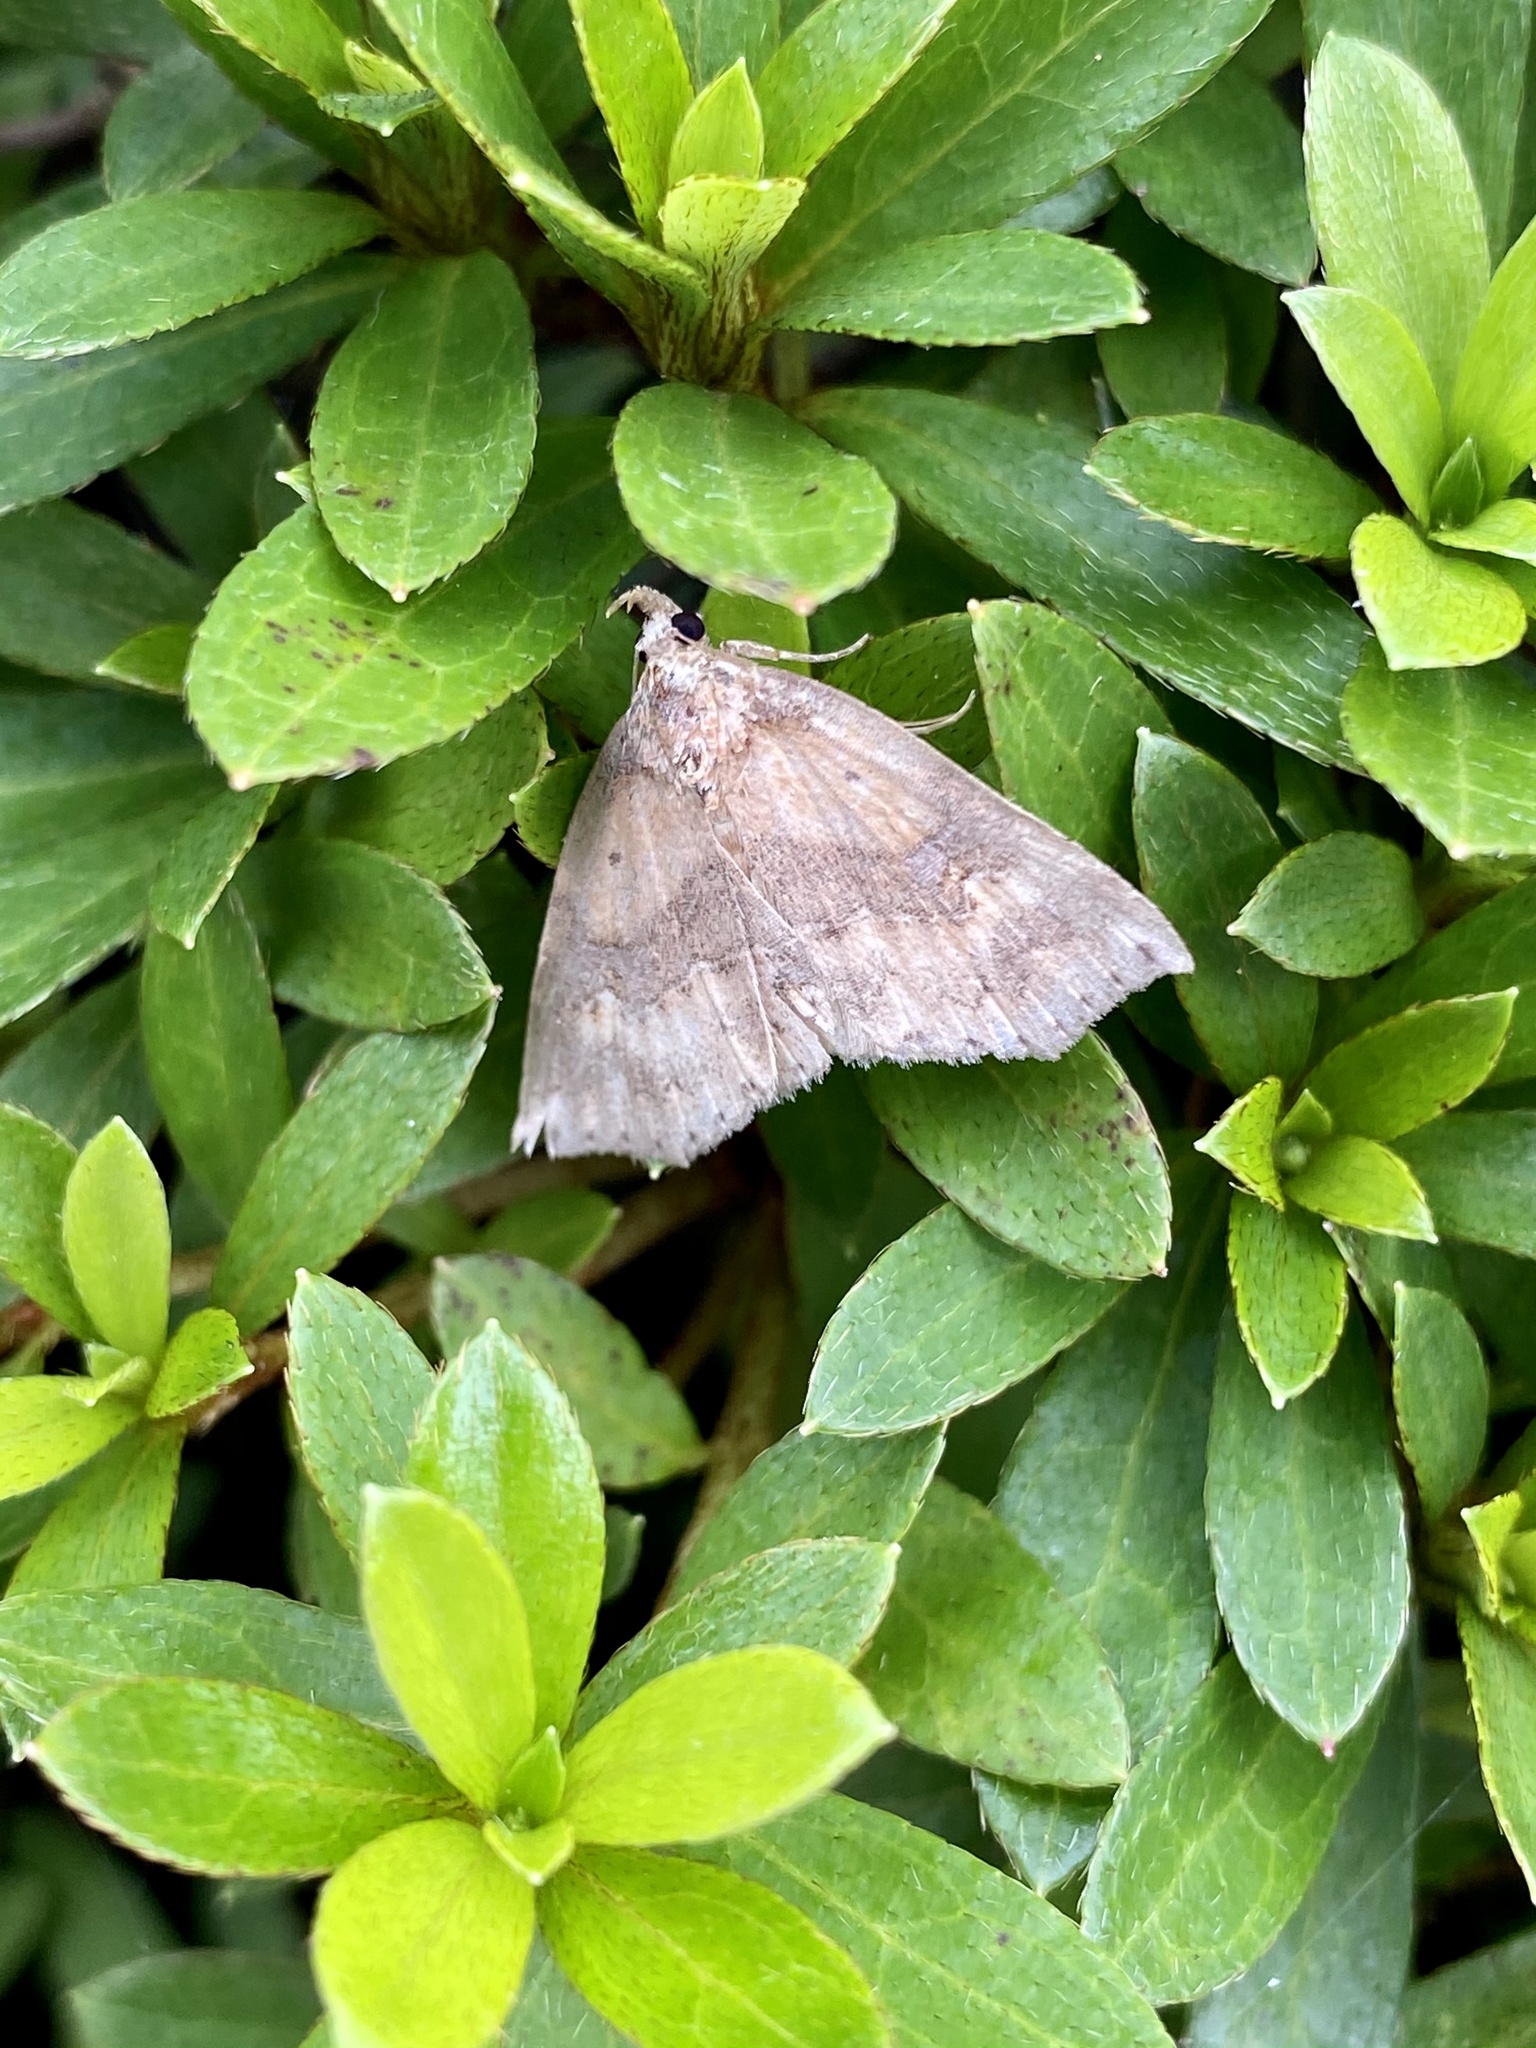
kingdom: Animalia
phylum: Arthropoda
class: Insecta
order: Lepidoptera
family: Erebidae
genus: Tamba
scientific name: Tamba corealis
